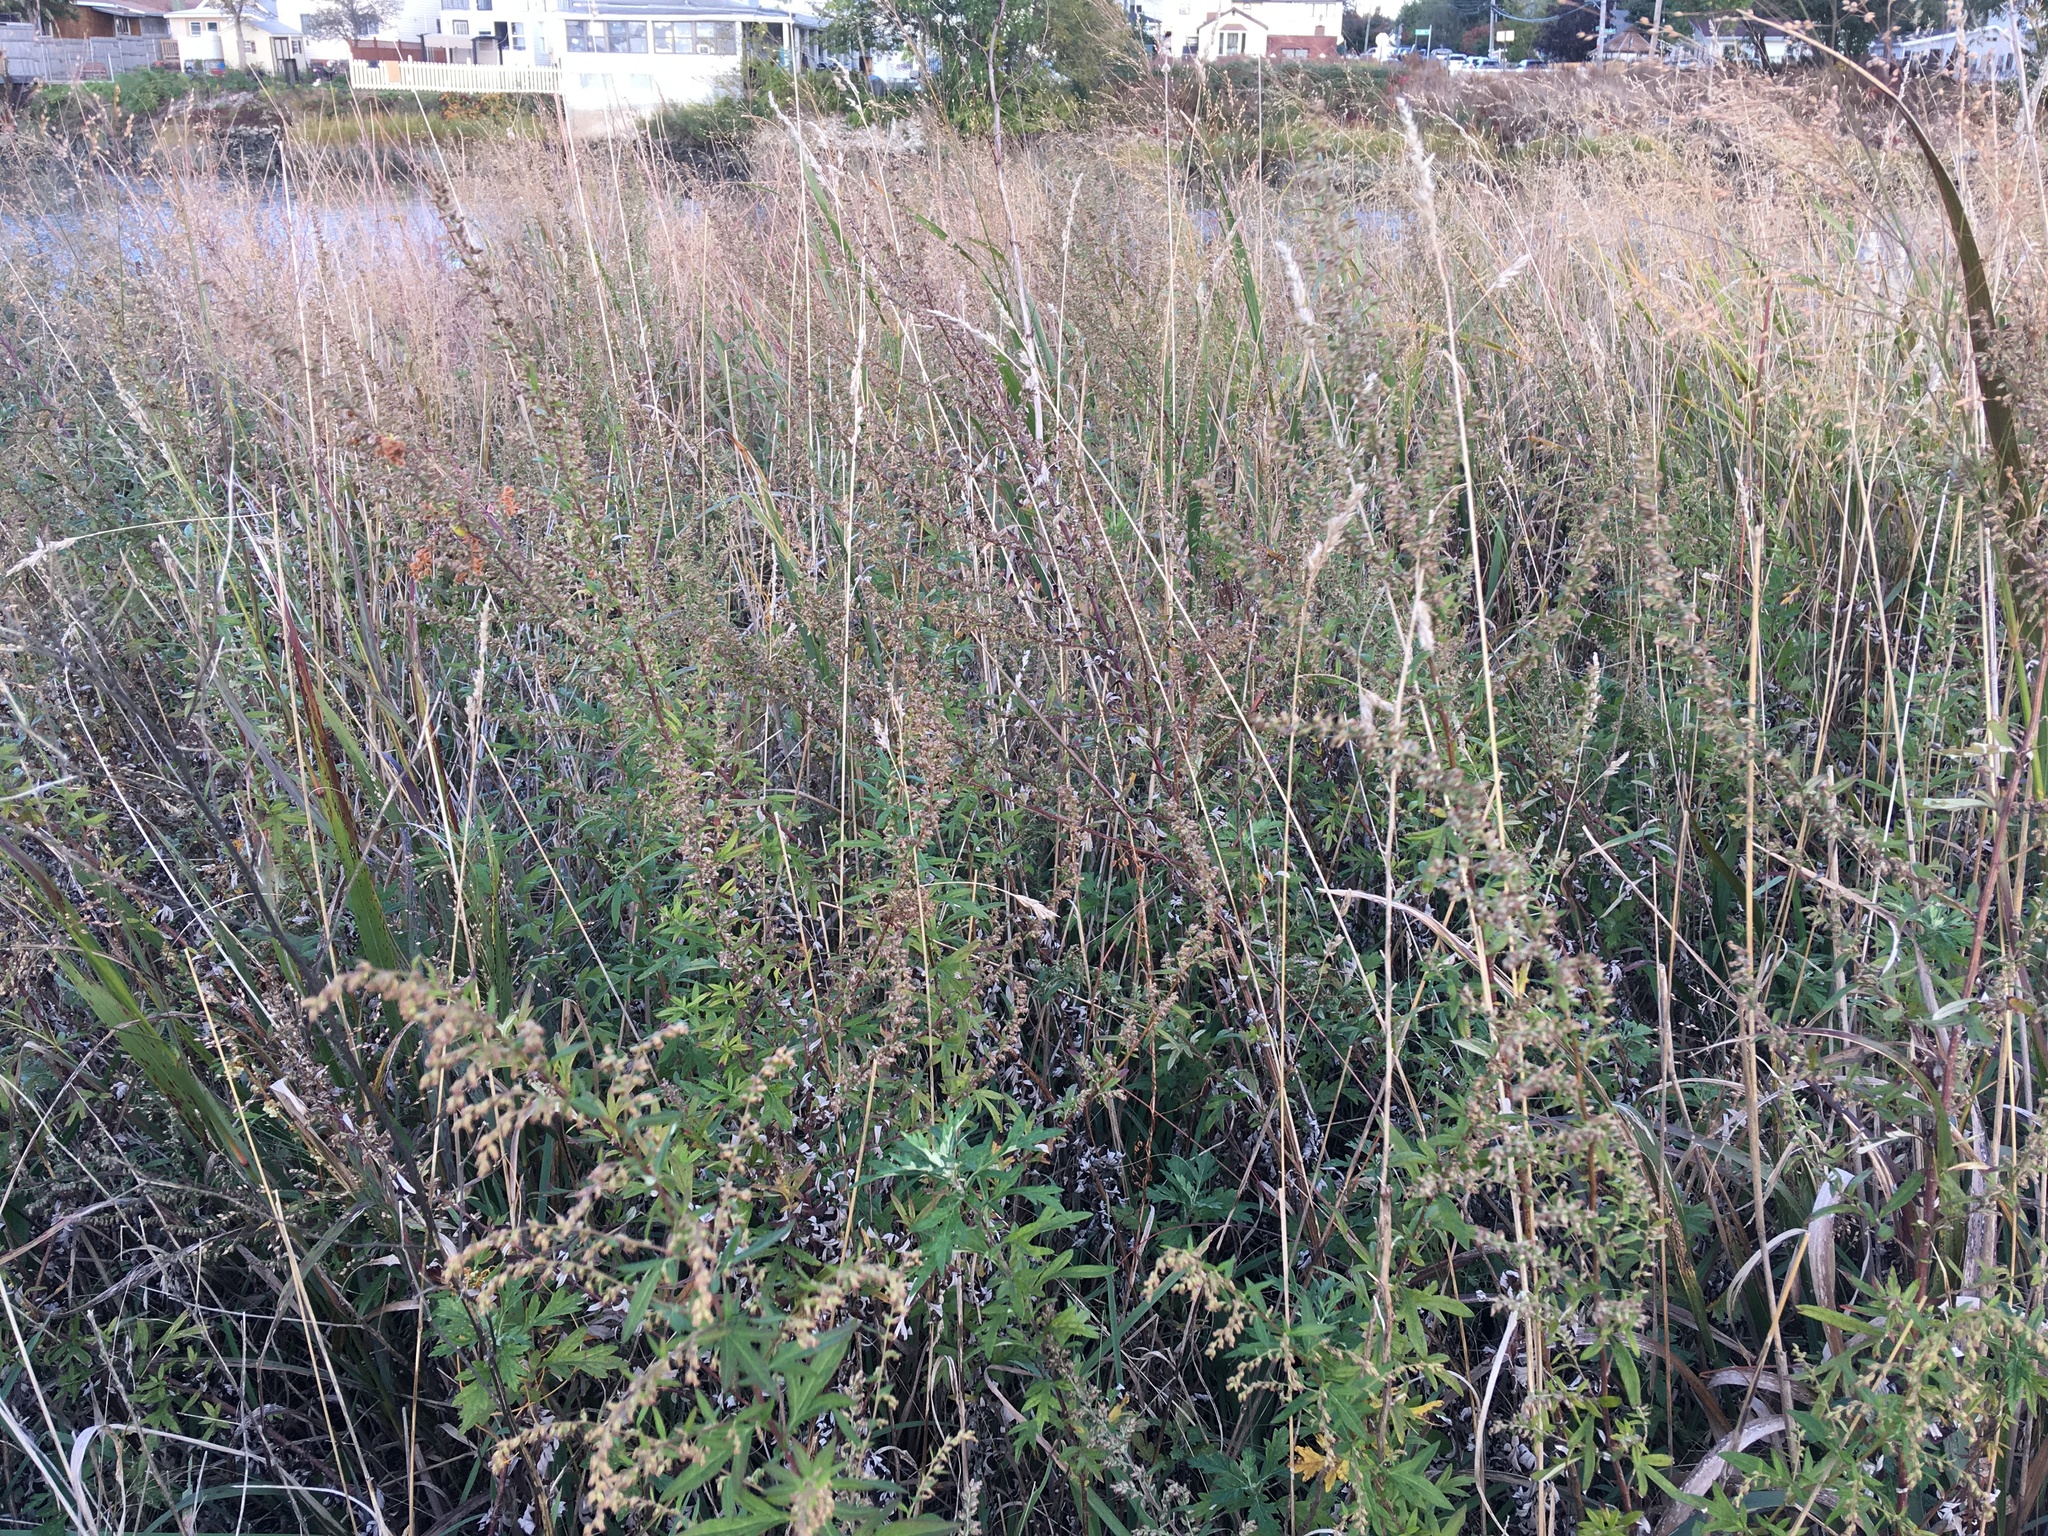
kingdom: Plantae
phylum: Tracheophyta
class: Magnoliopsida
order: Asterales
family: Asteraceae
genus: Artemisia
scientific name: Artemisia vulgaris
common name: Mugwort
